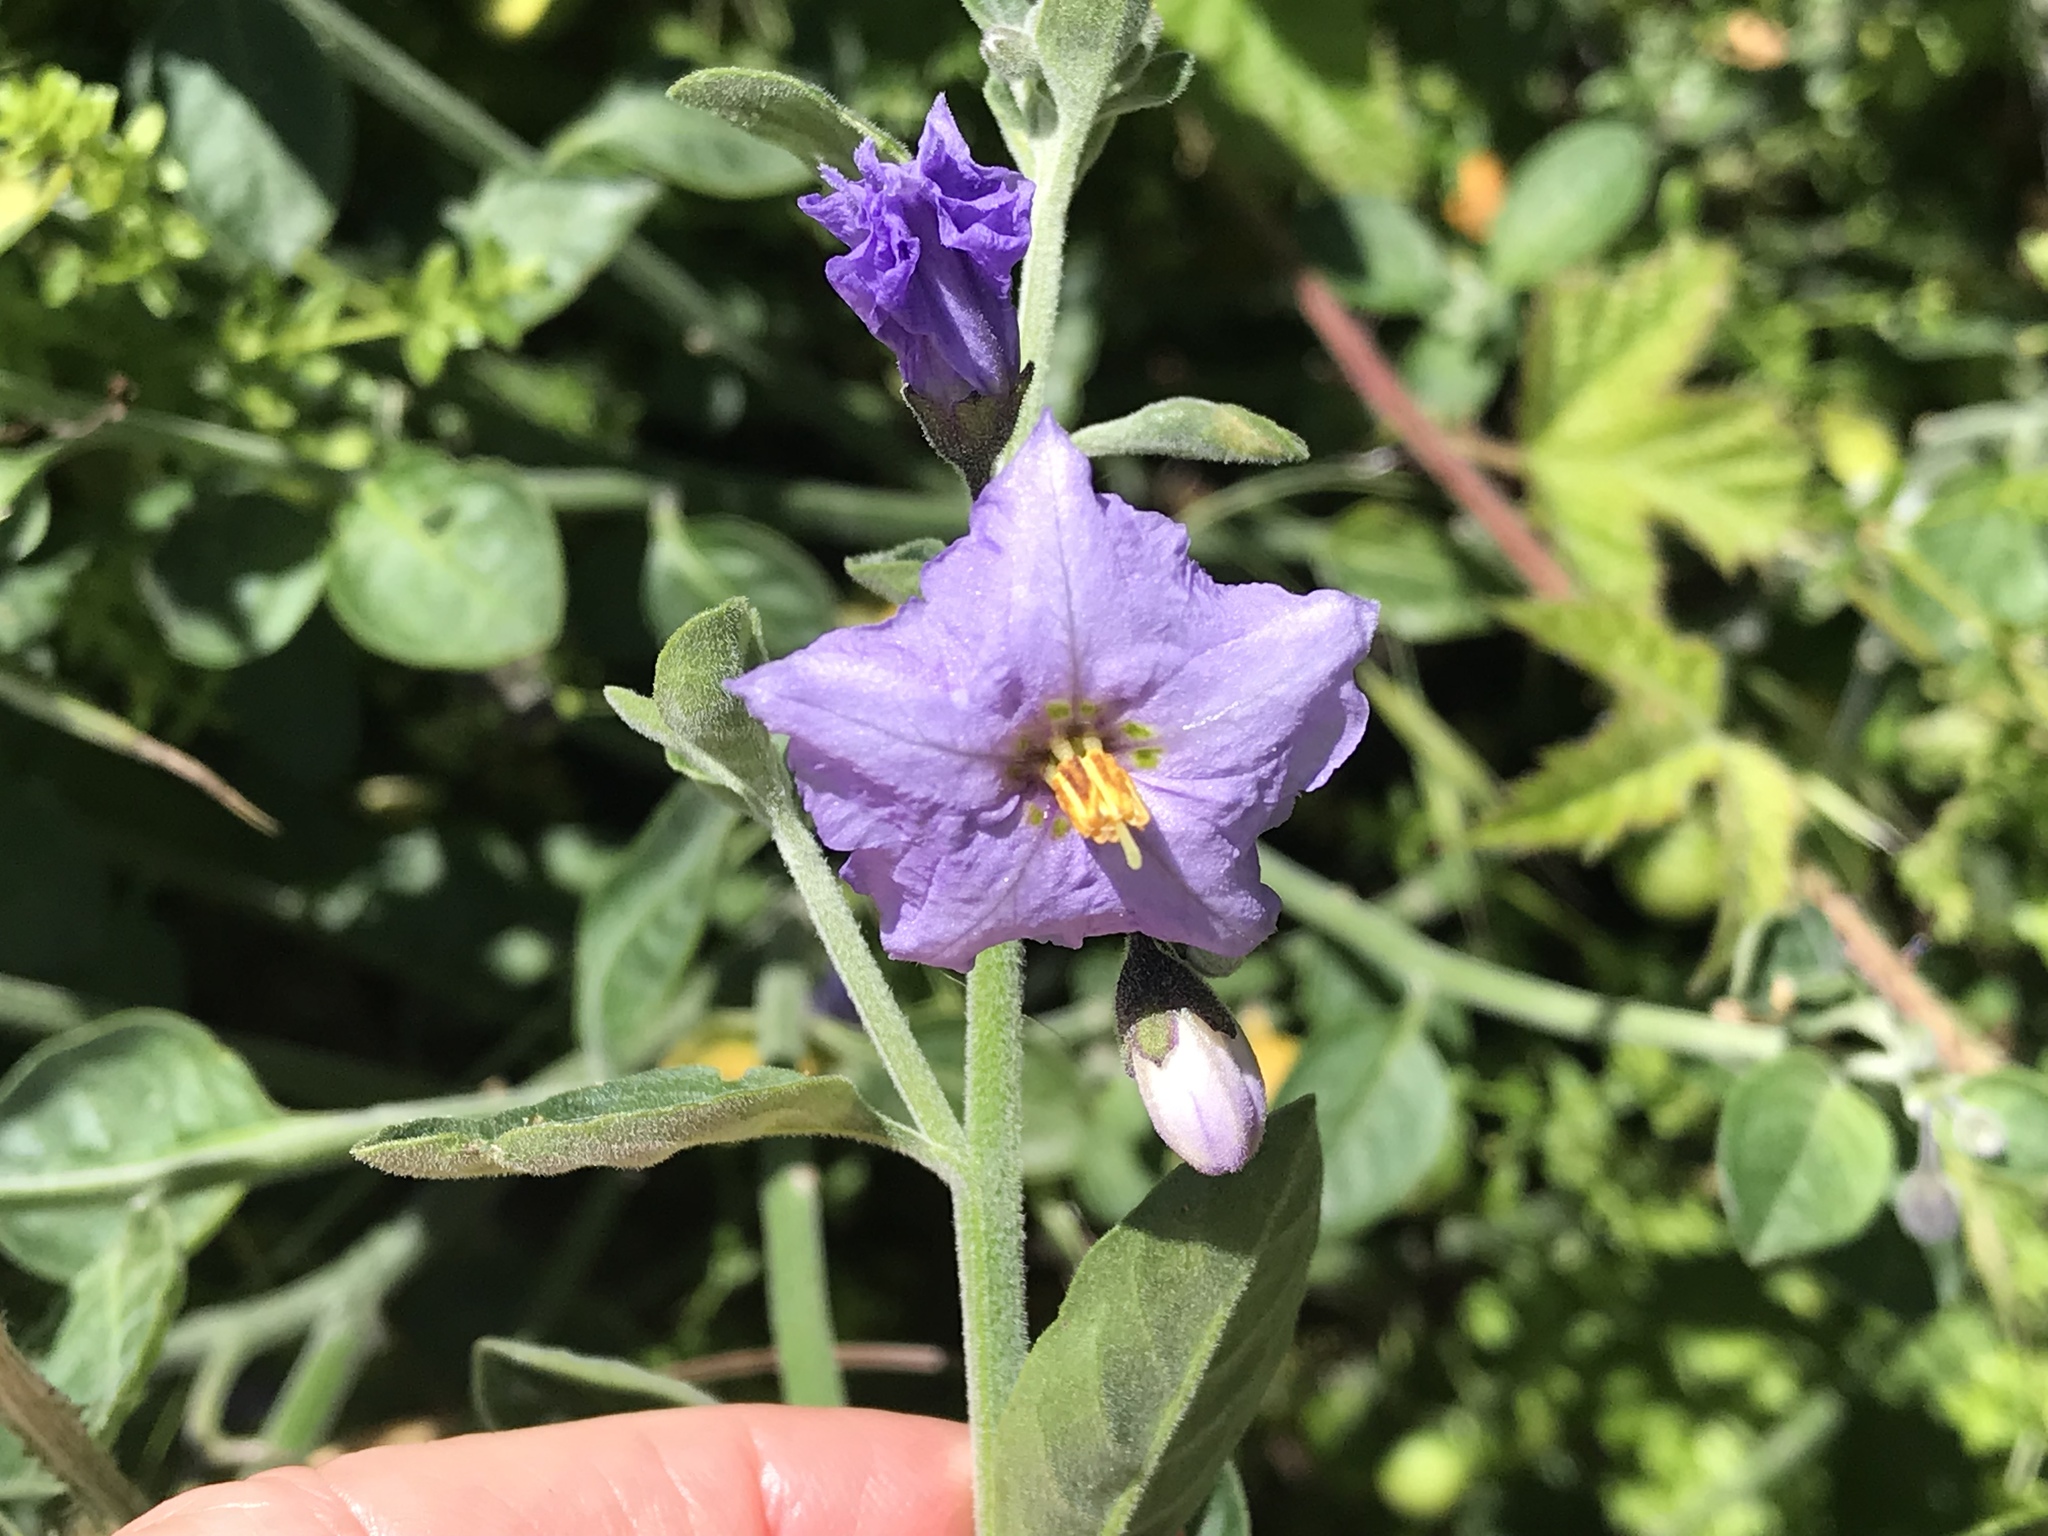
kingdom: Plantae
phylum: Tracheophyta
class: Magnoliopsida
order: Solanales
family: Solanaceae
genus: Solanum
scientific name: Solanum umbelliferum
